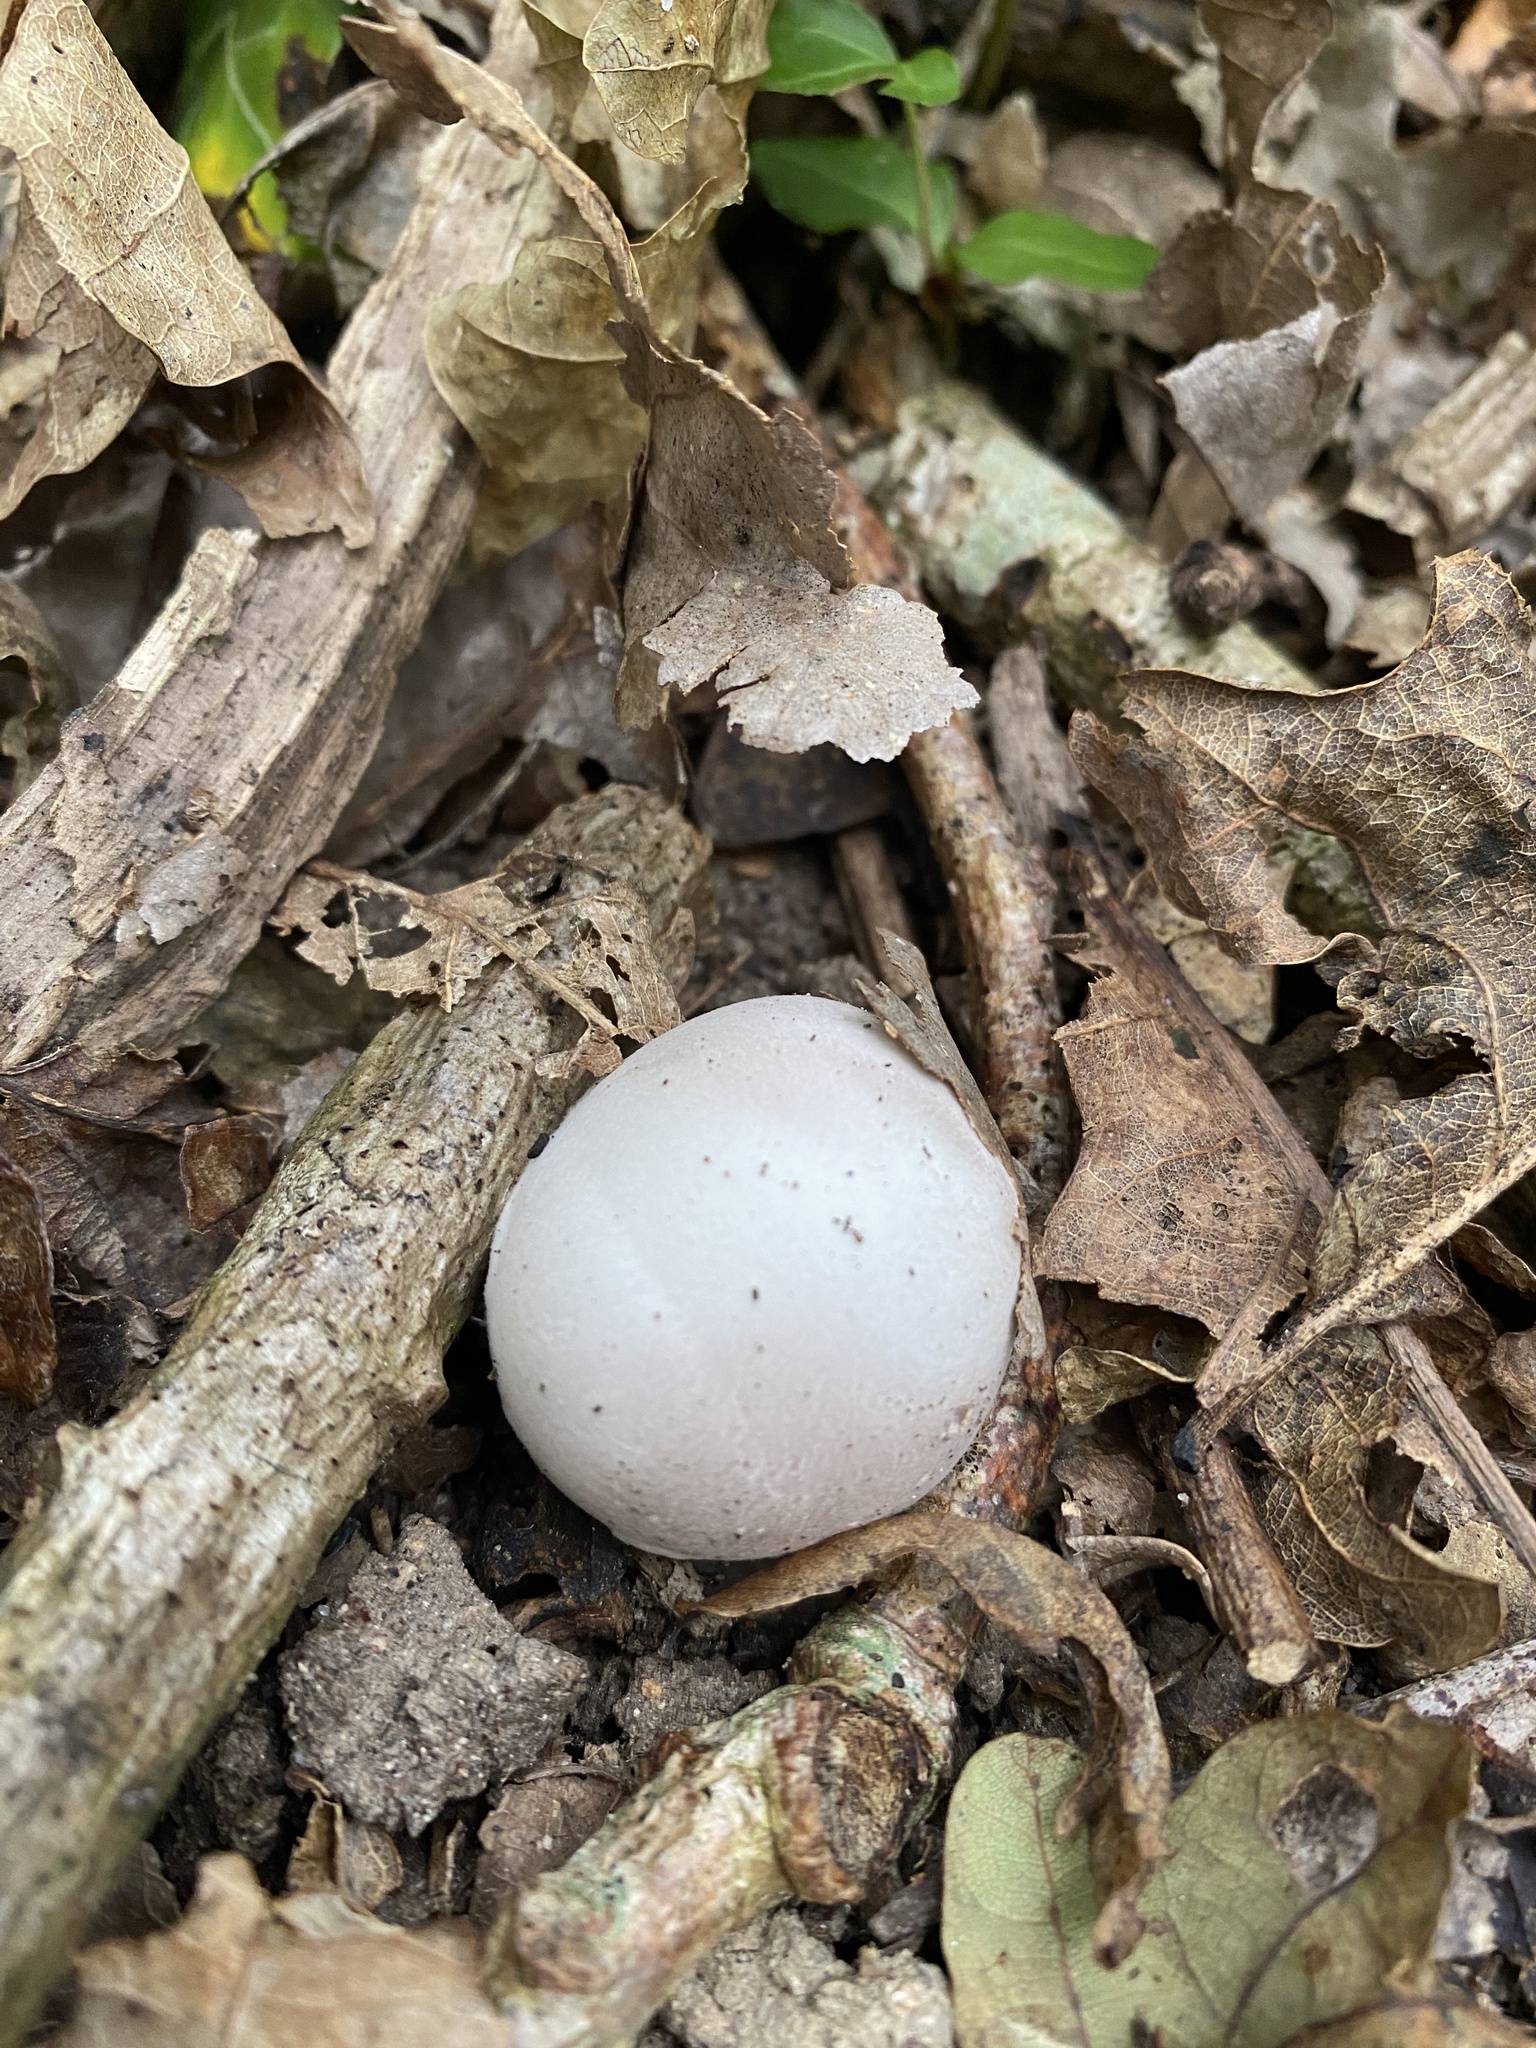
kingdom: Fungi
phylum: Basidiomycota
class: Agaricomycetes
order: Phallales
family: Phallaceae
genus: Clathrus
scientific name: Clathrus archeri
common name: Devil's fingers
